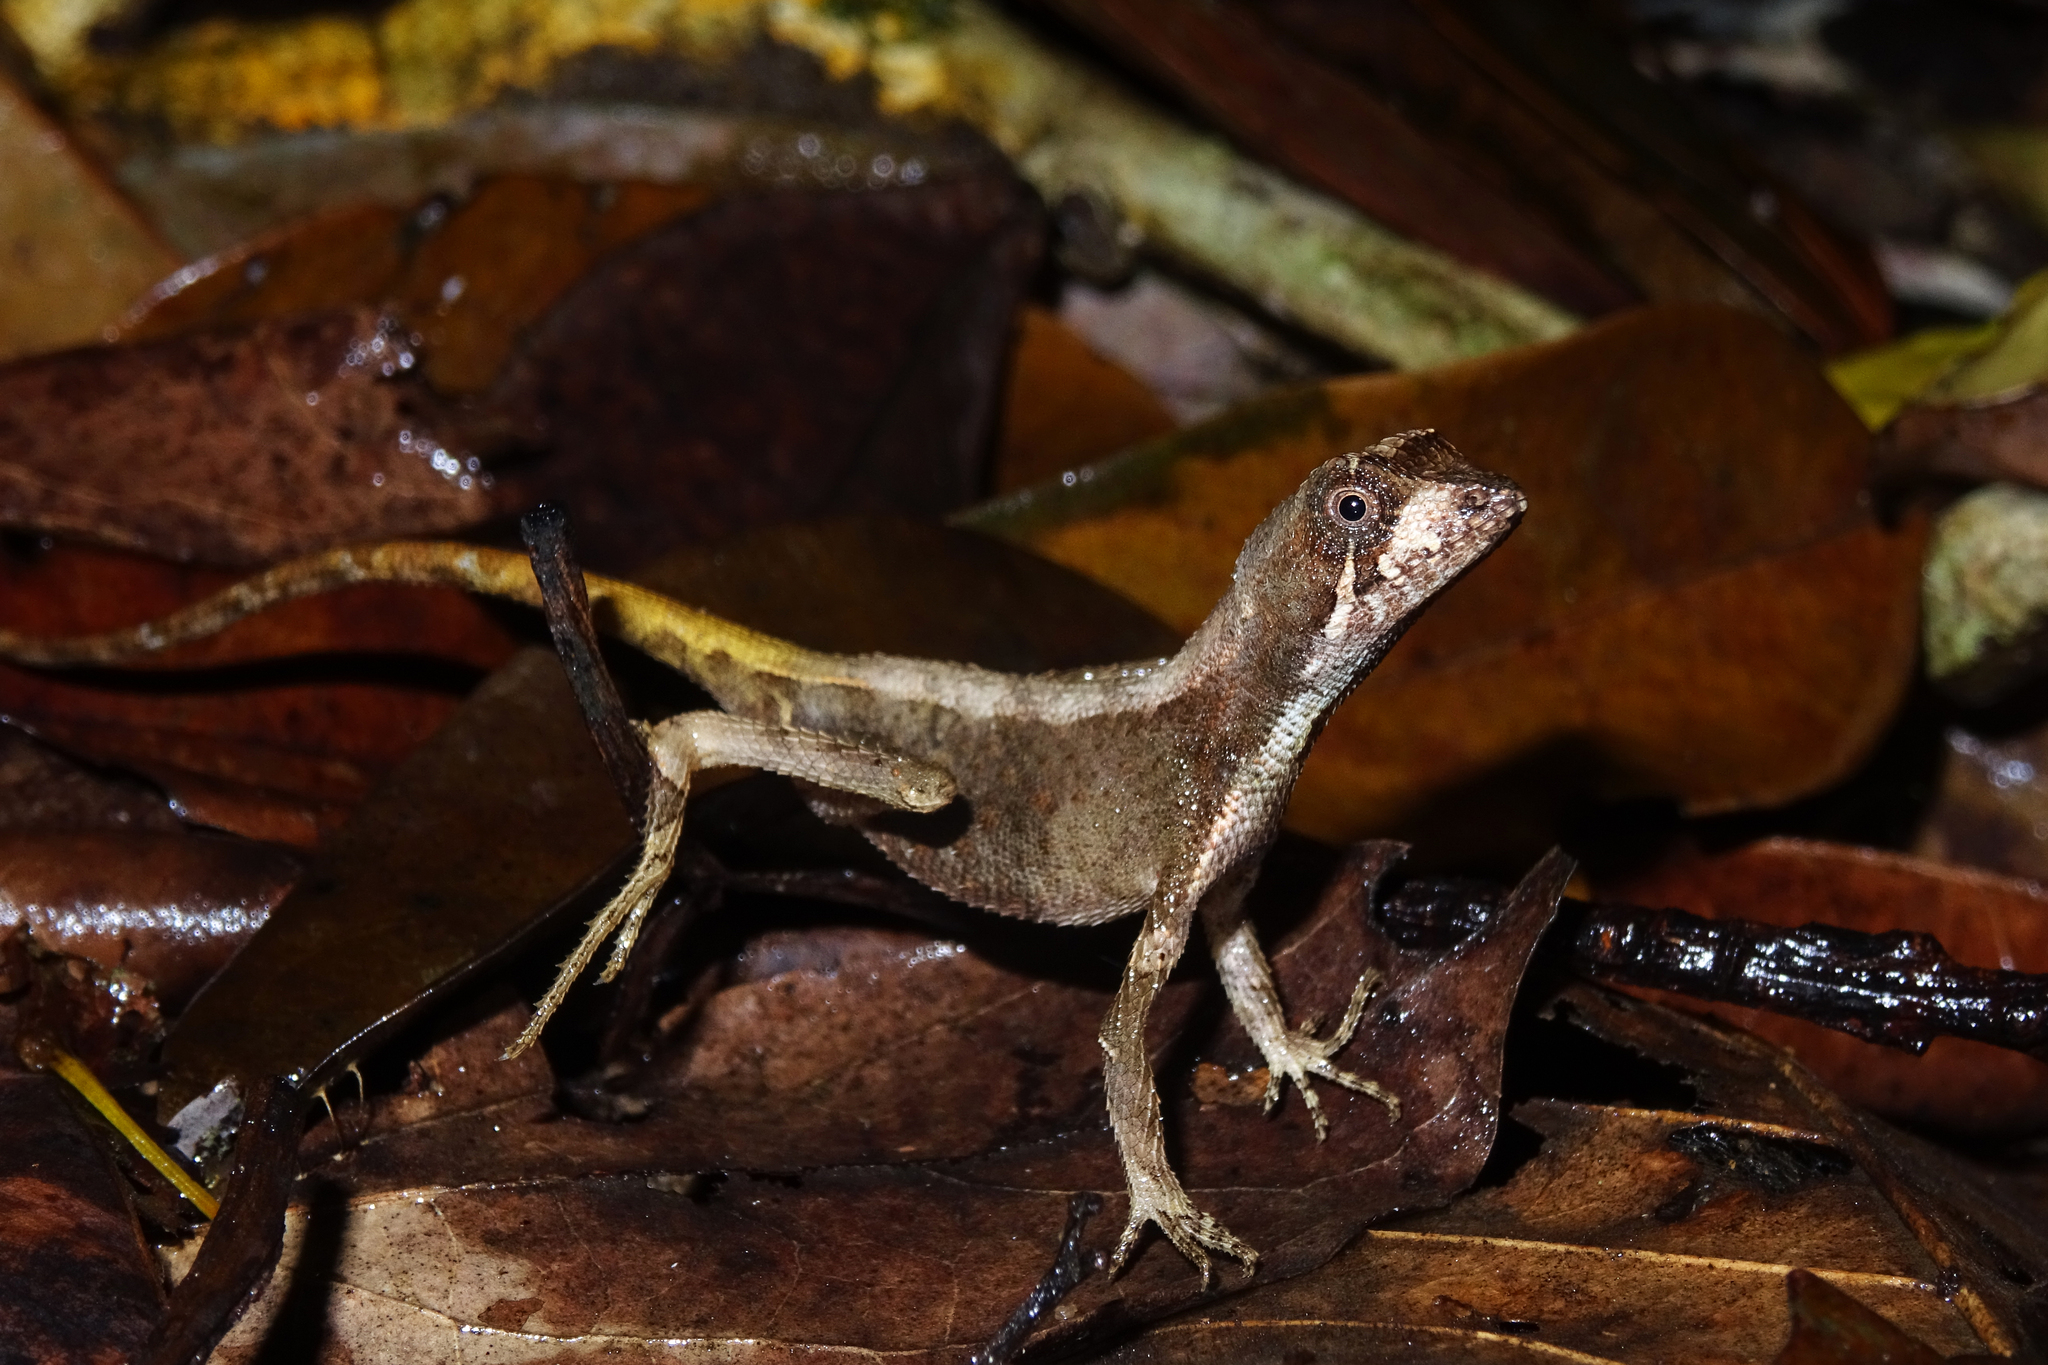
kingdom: Animalia
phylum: Chordata
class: Squamata
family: Agamidae
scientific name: Agamidae
